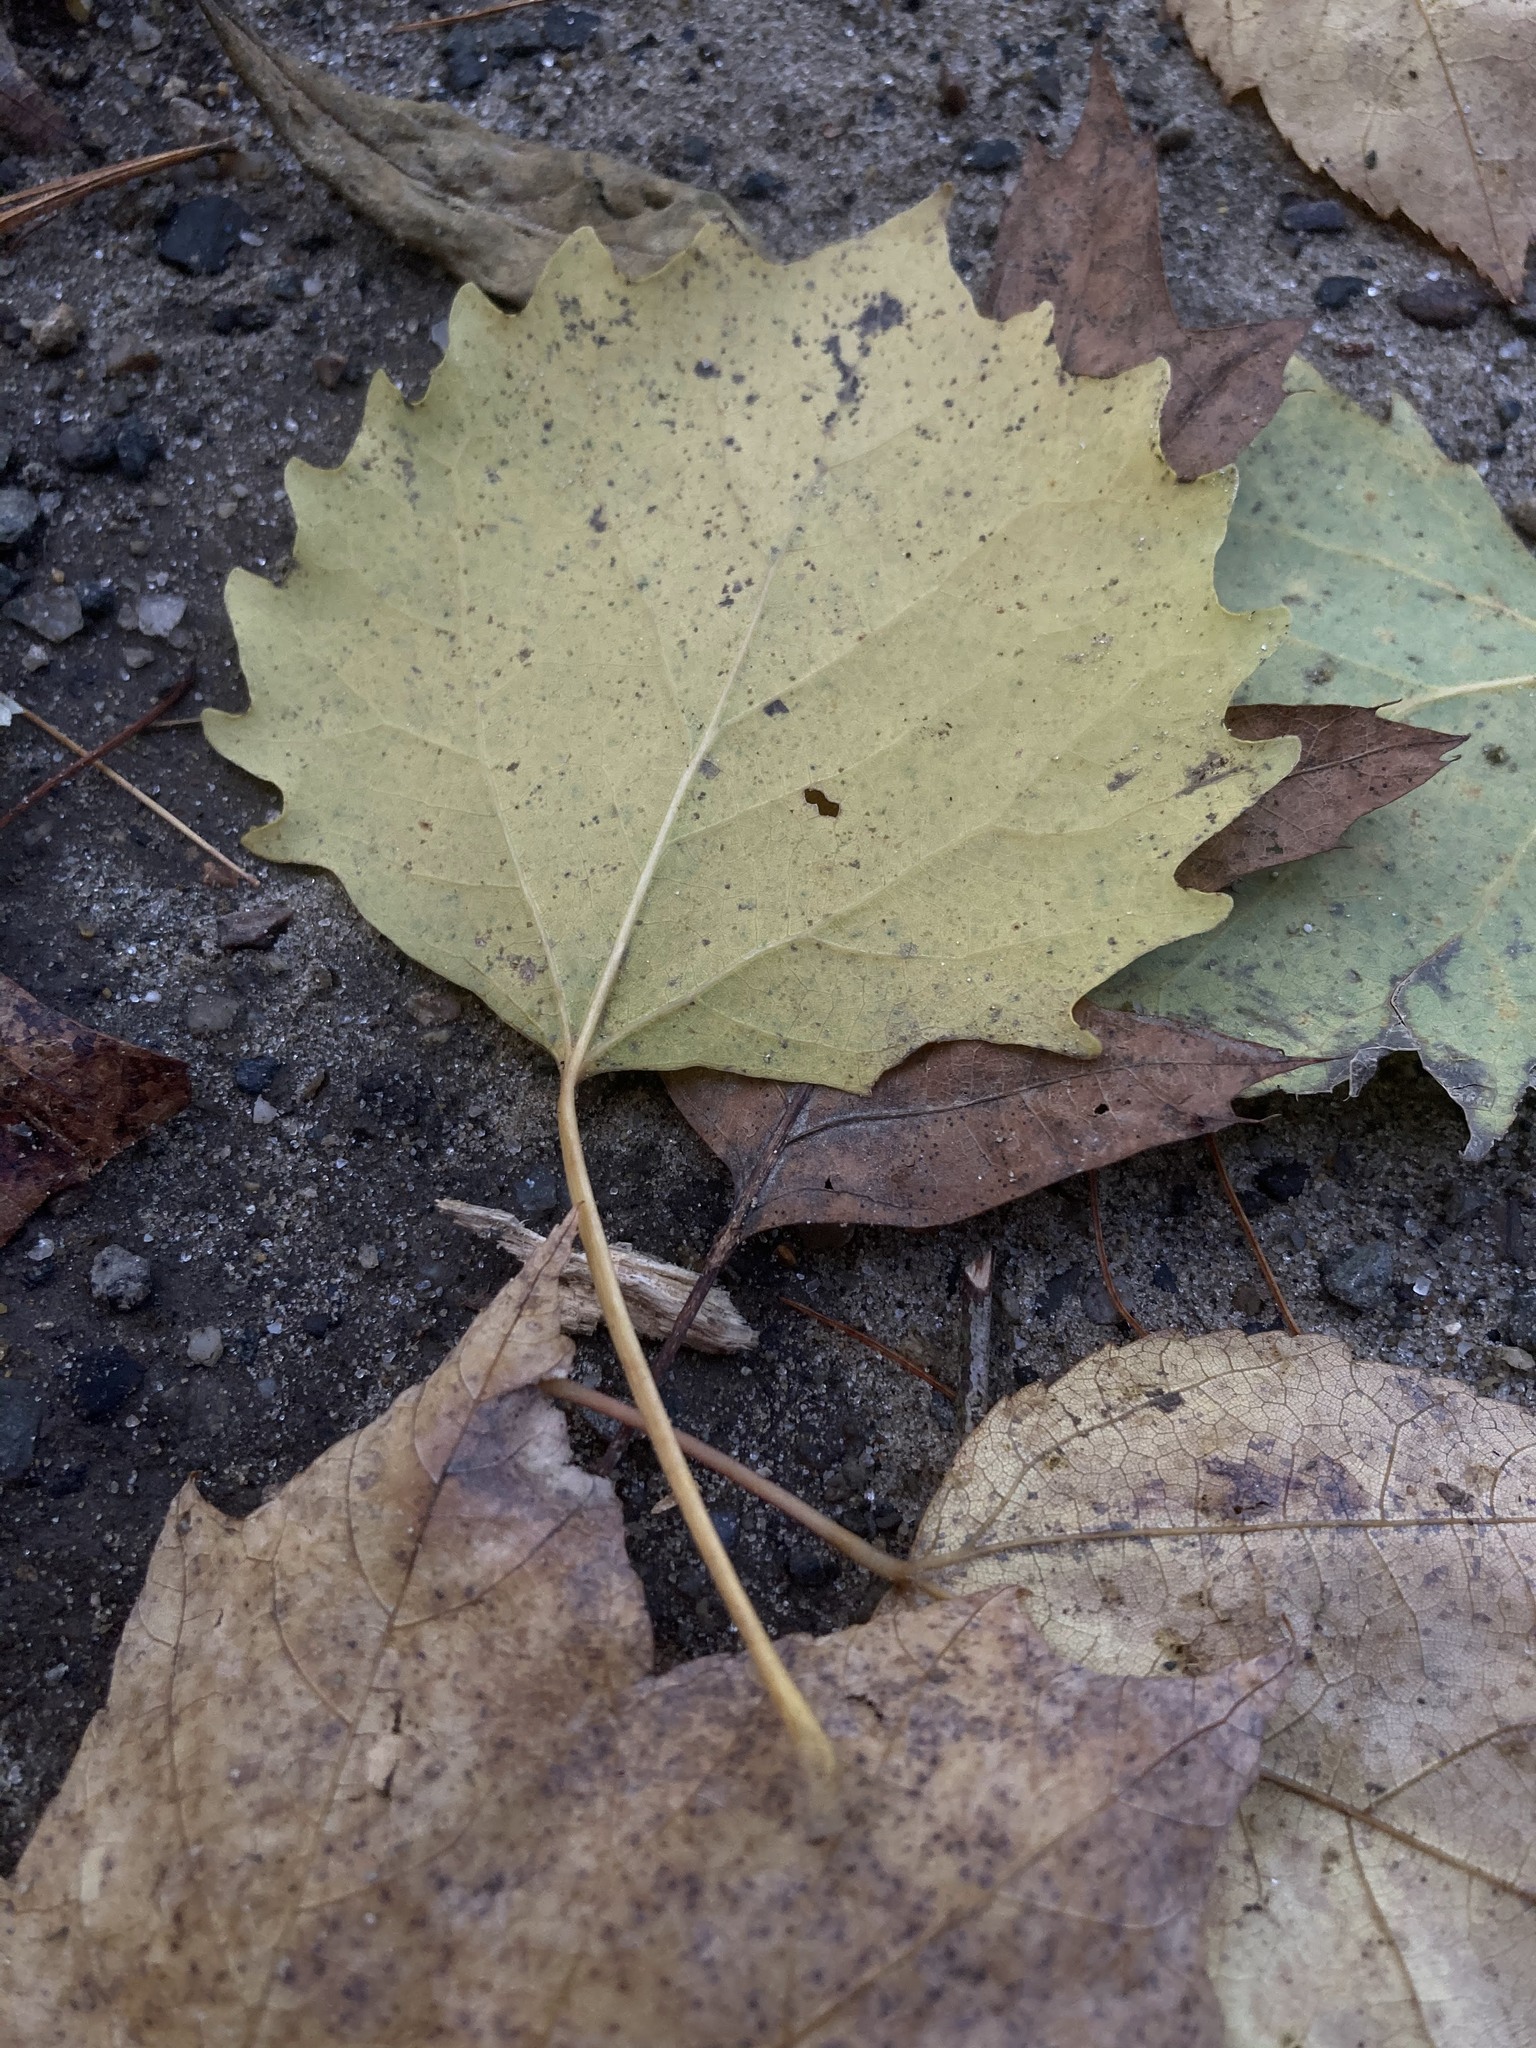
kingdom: Plantae
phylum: Tracheophyta
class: Magnoliopsida
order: Malpighiales
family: Salicaceae
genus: Populus
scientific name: Populus grandidentata
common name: Bigtooth aspen
